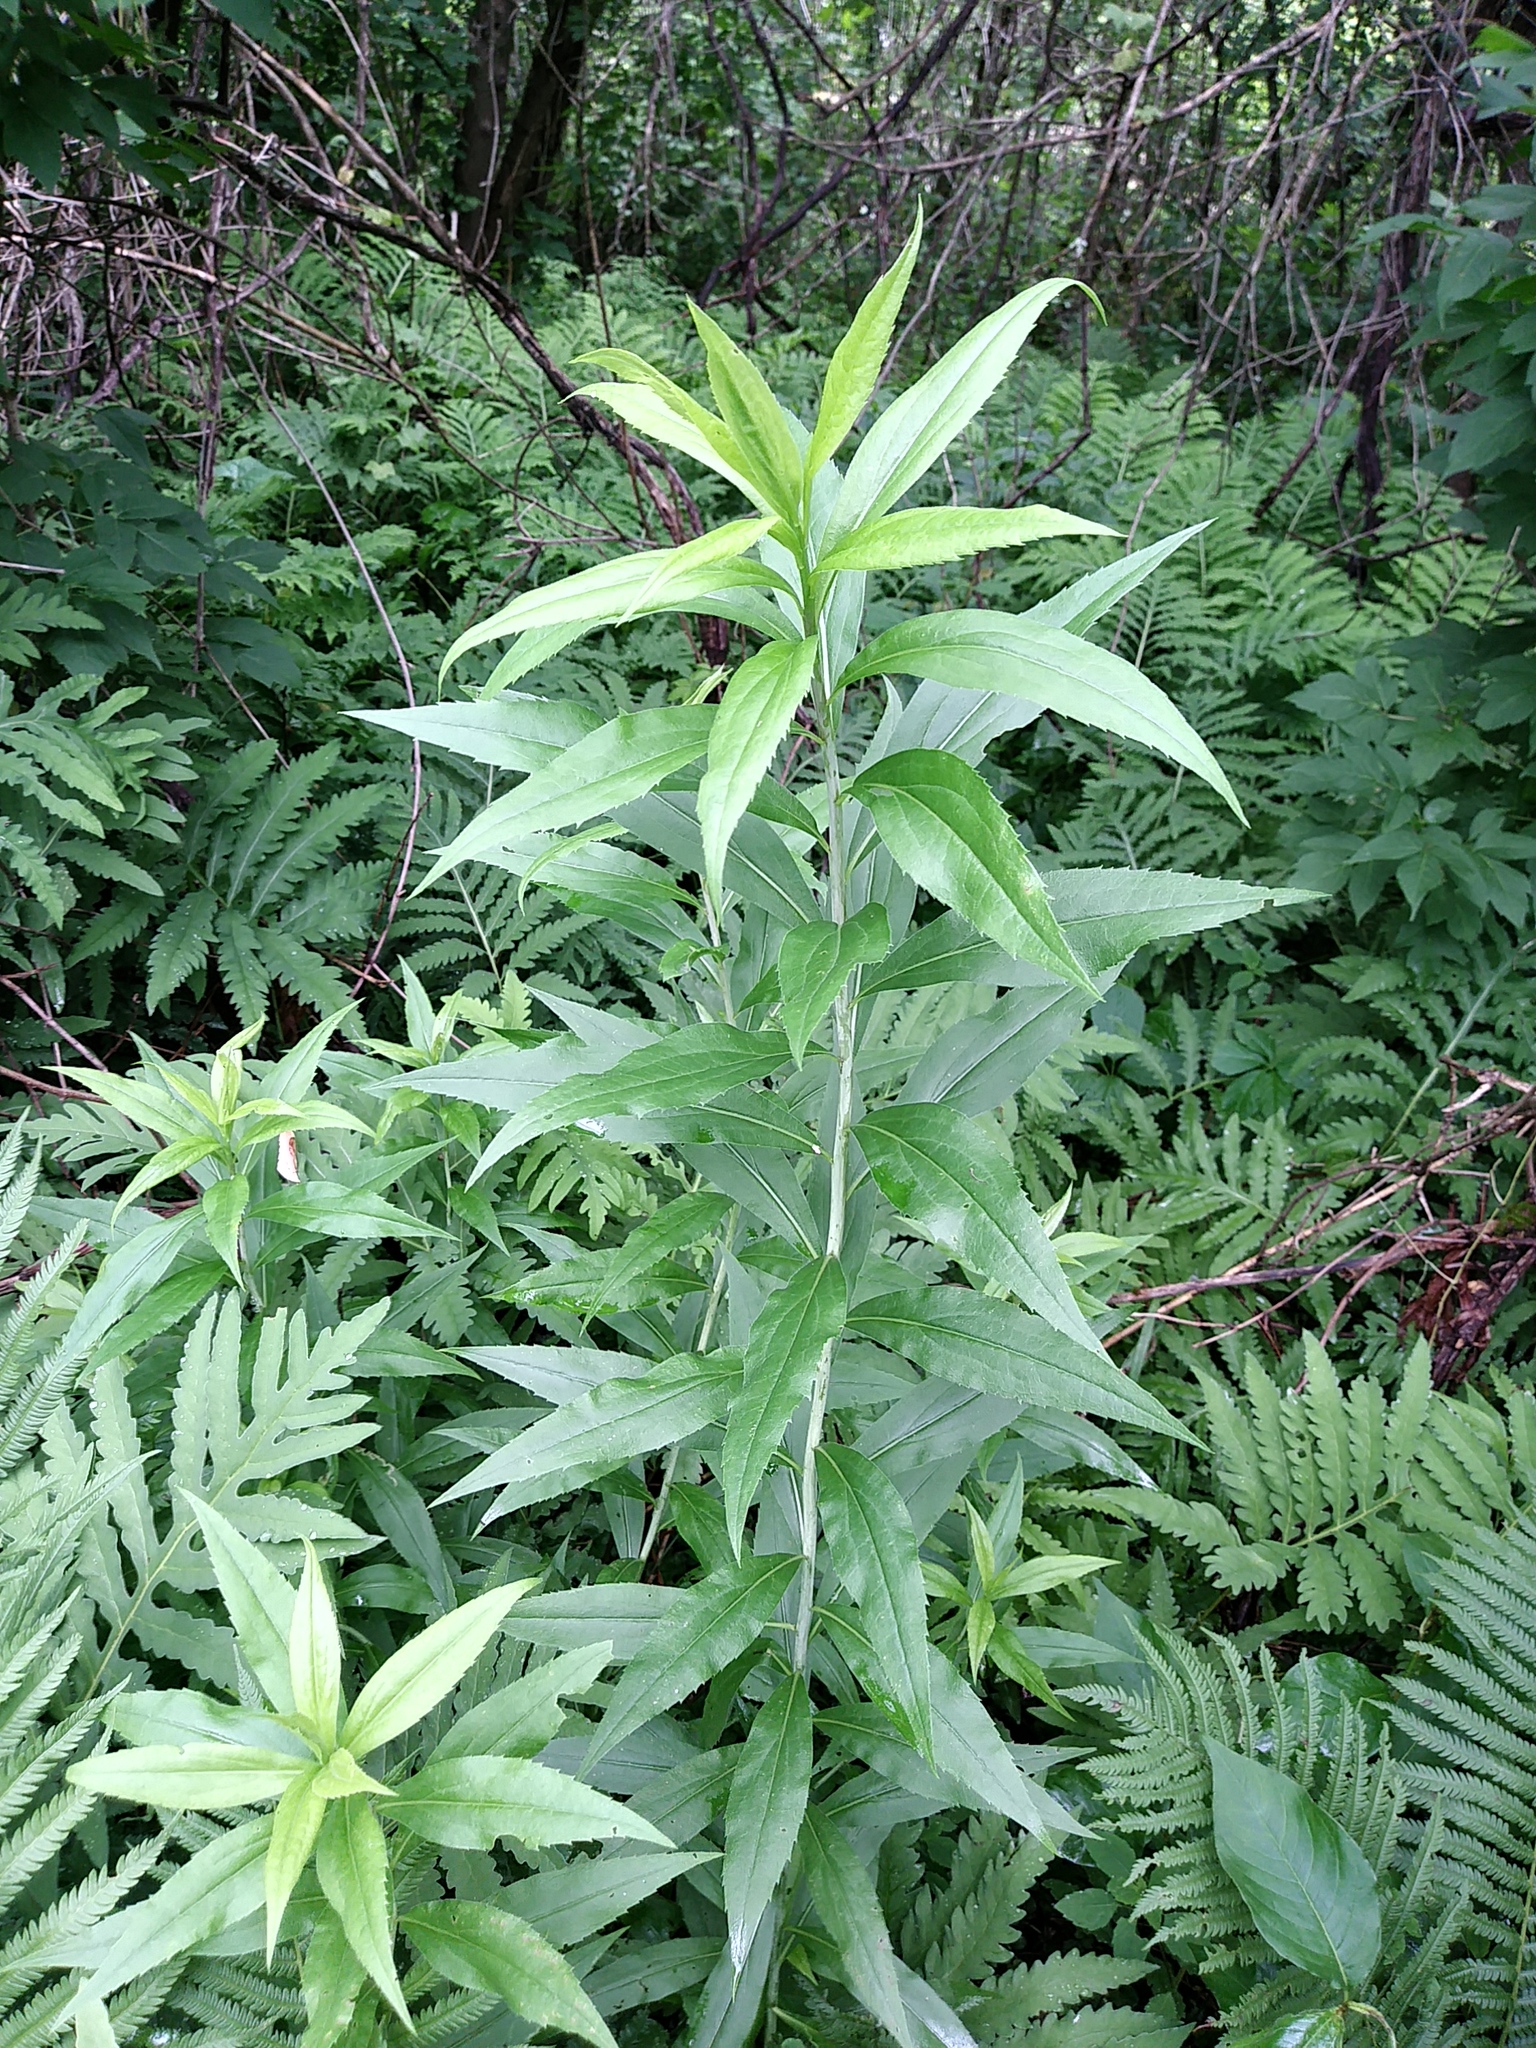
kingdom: Plantae
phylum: Tracheophyta
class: Magnoliopsida
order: Asterales
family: Asteraceae
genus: Solidago
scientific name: Solidago gigantea
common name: Giant goldenrod
